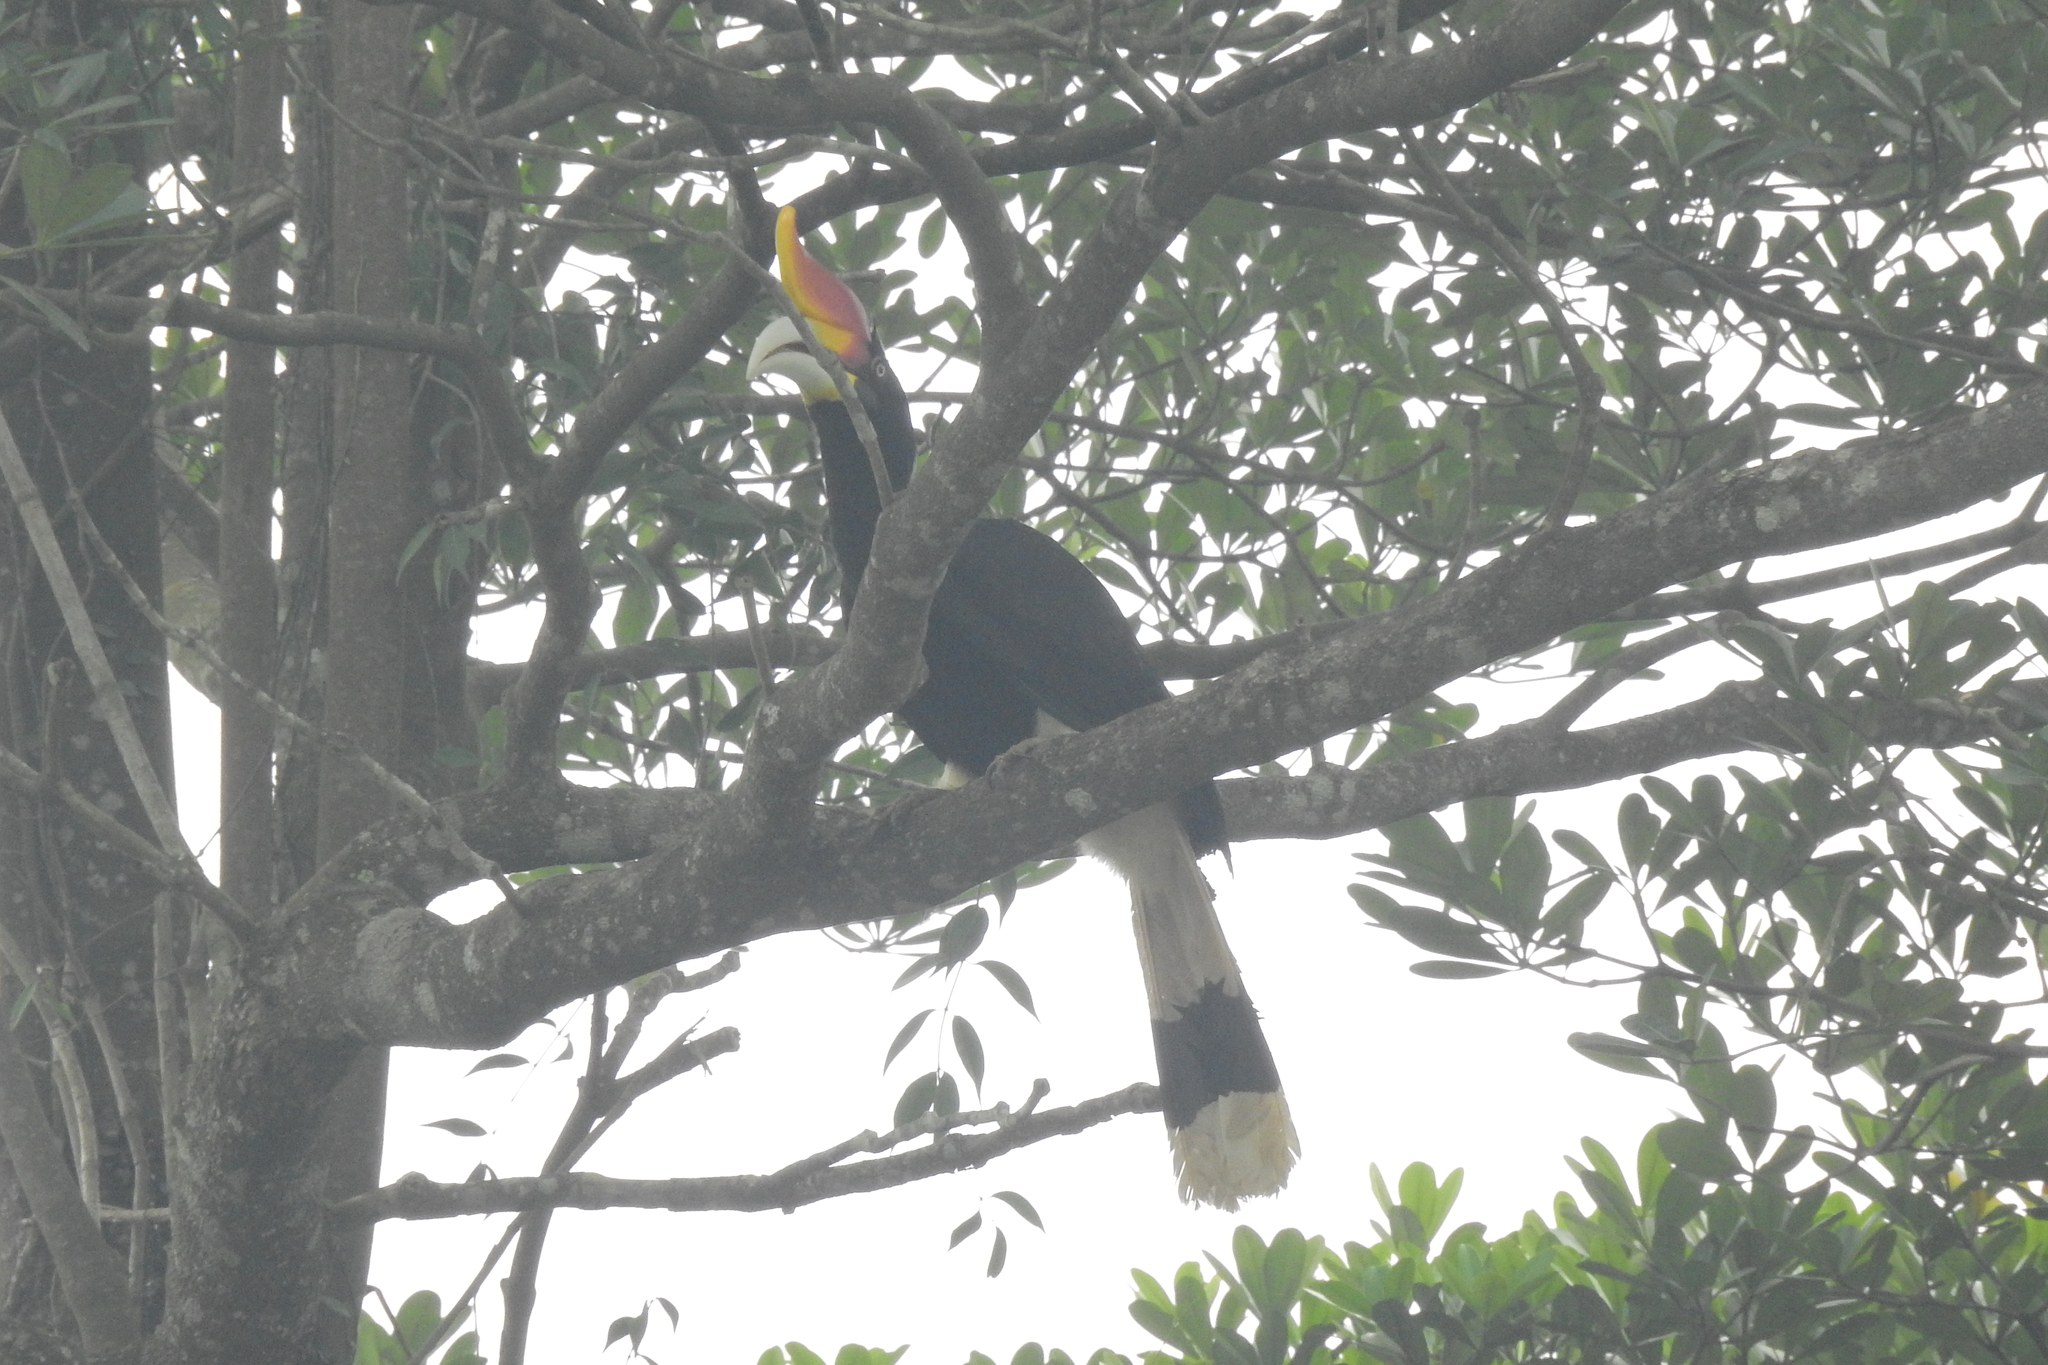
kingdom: Animalia
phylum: Chordata
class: Aves
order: Bucerotiformes
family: Bucerotidae
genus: Buceros
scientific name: Buceros rhinoceros
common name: Rhinoceros hornbill
